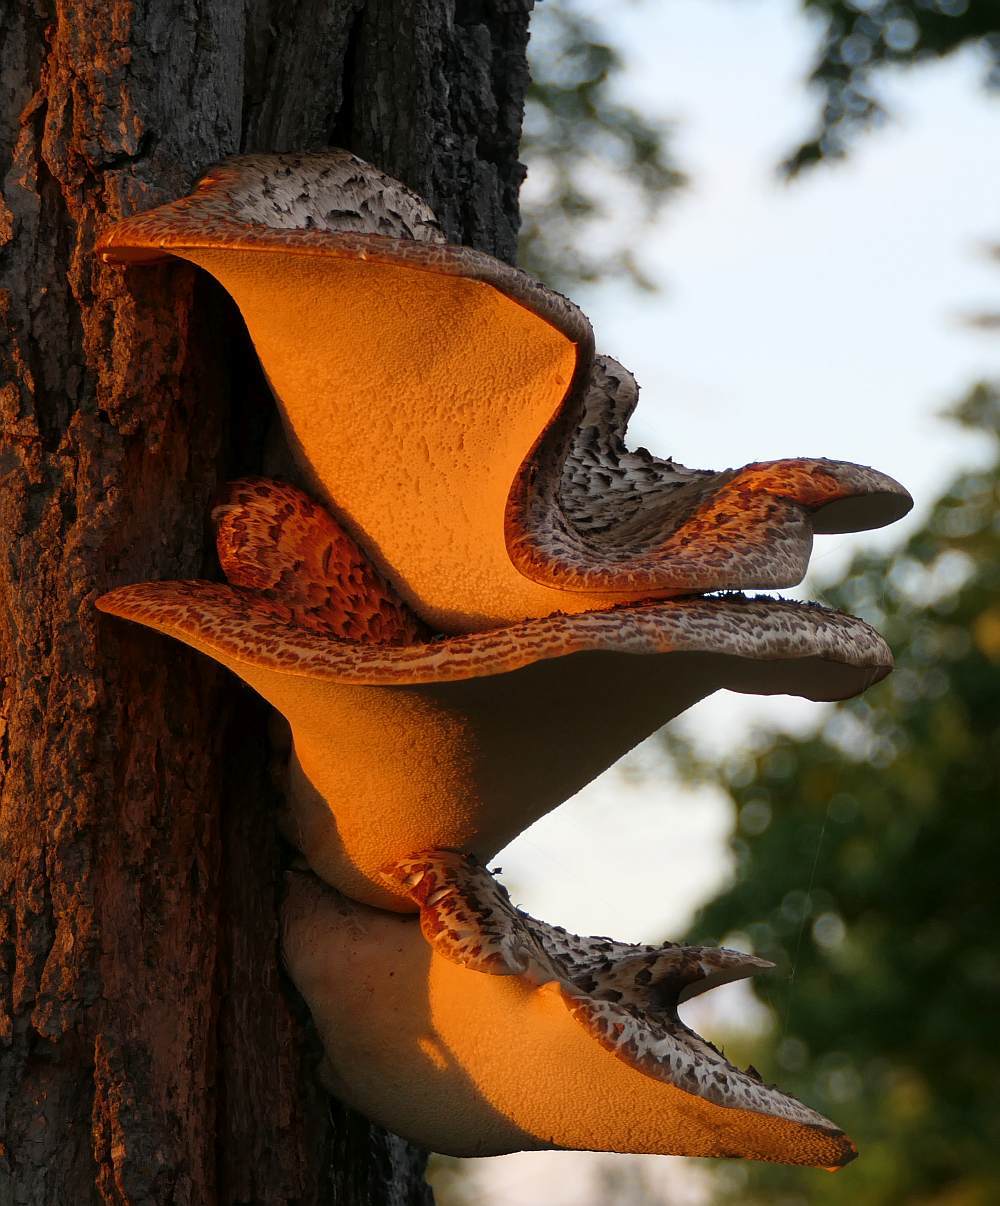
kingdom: Fungi
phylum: Basidiomycota
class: Agaricomycetes
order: Polyporales
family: Polyporaceae
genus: Cerioporus
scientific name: Cerioporus squamosus
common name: Dryad's saddle
